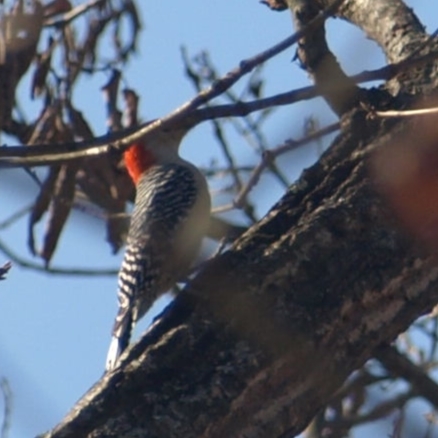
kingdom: Animalia
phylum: Chordata
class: Aves
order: Piciformes
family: Picidae
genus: Melanerpes
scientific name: Melanerpes carolinus
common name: Red-bellied woodpecker
